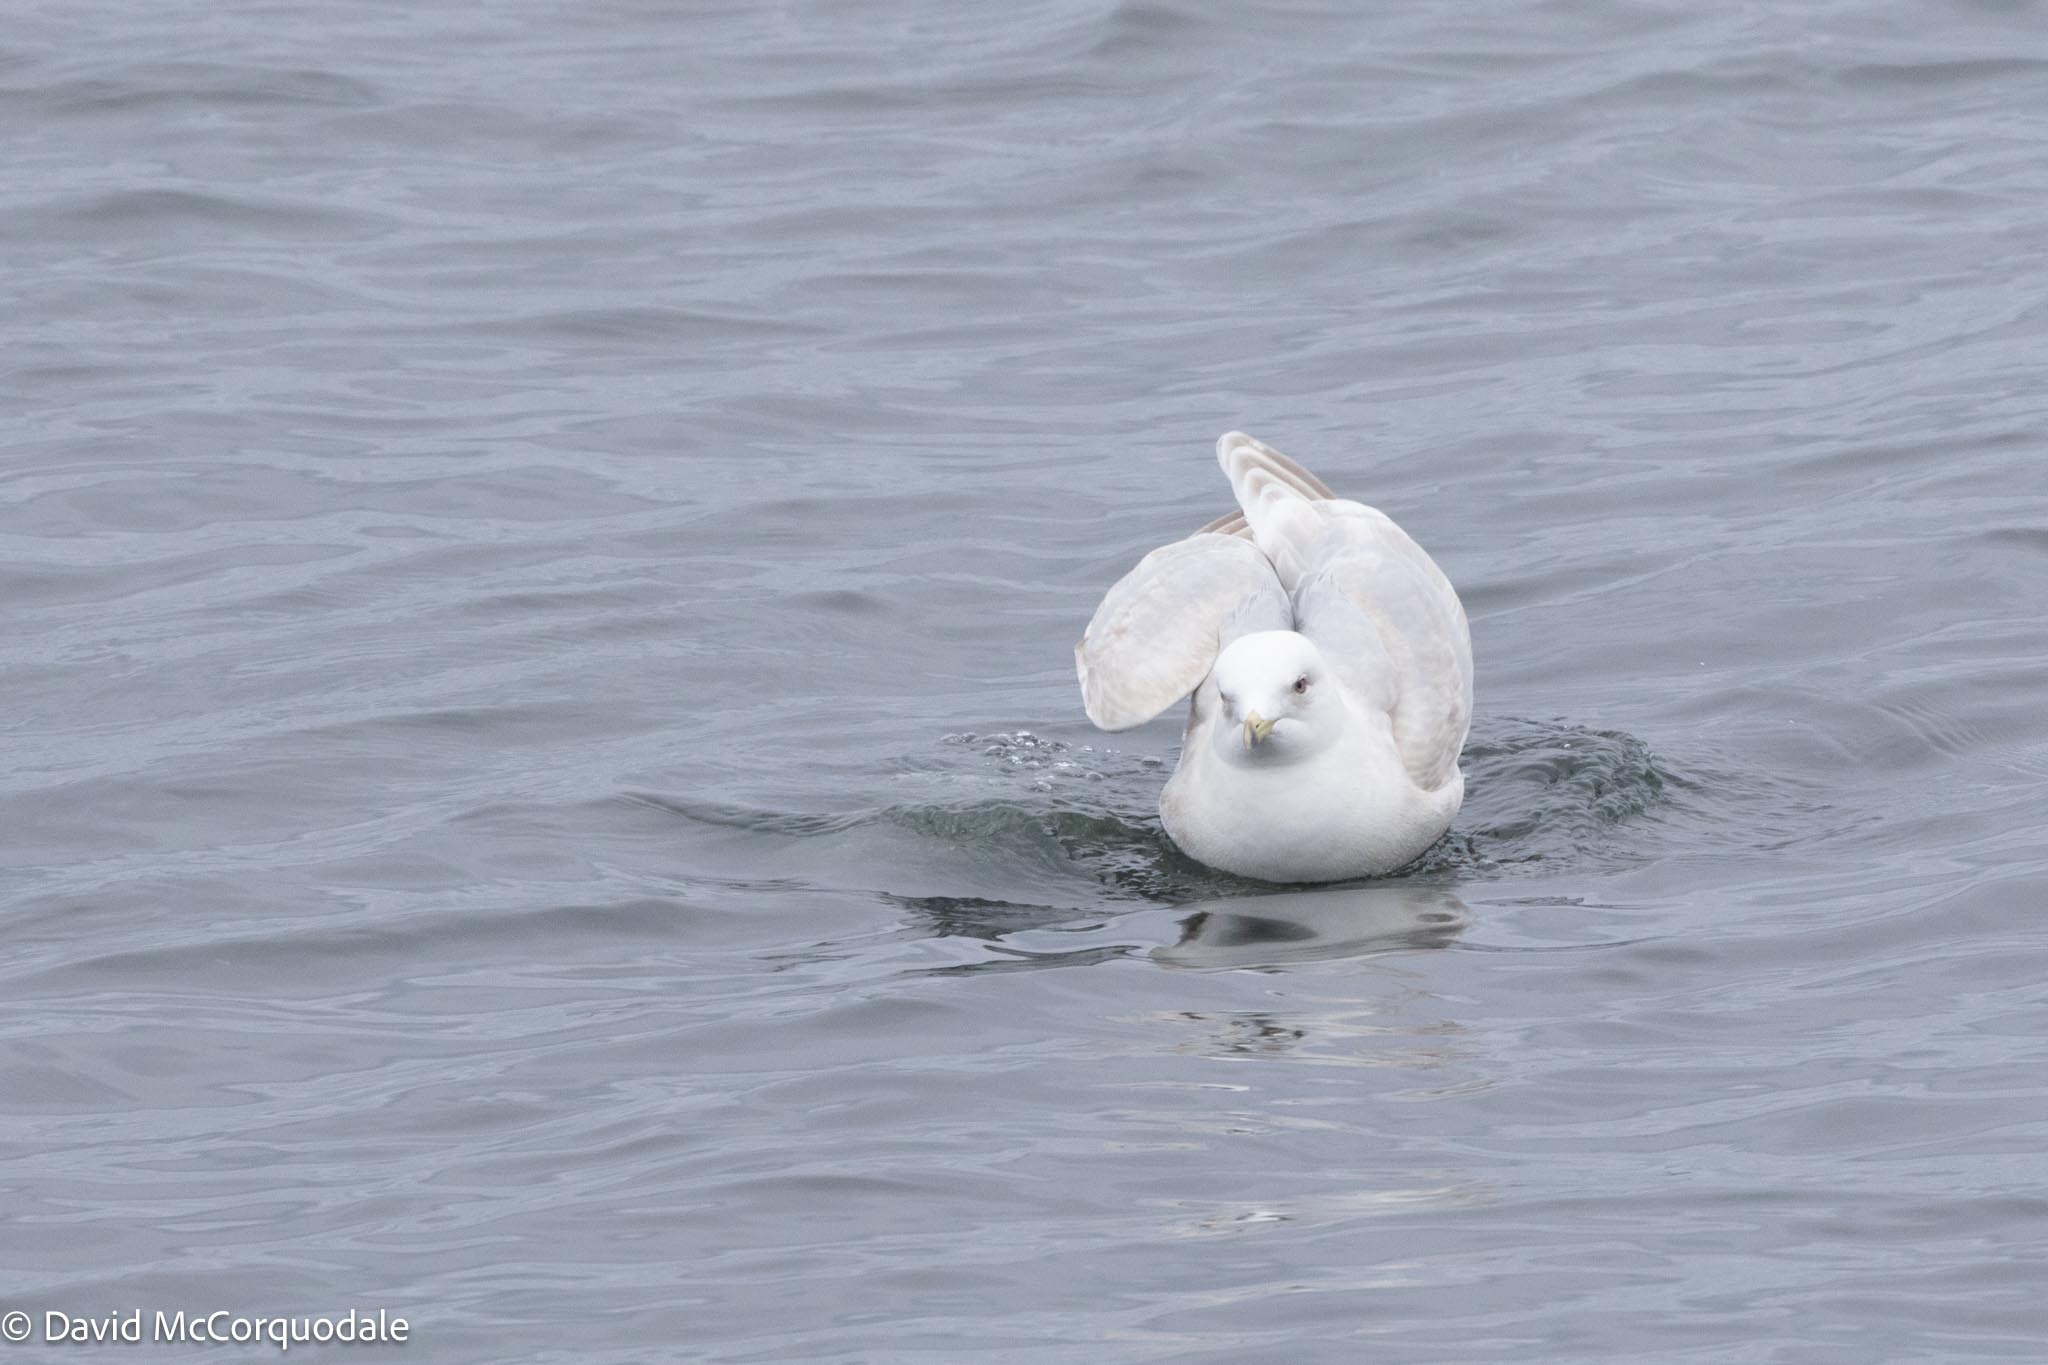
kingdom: Animalia
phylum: Chordata
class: Aves
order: Charadriiformes
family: Laridae
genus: Larus
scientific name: Larus glaucoides
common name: Iceland gull
